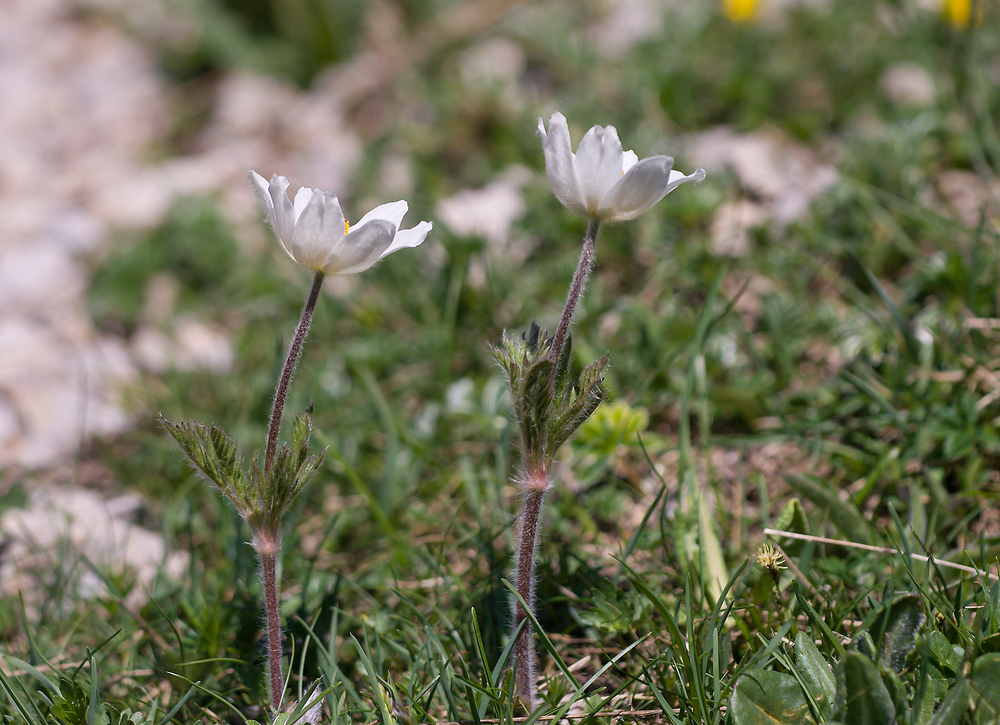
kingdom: Plantae
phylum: Tracheophyta
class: Magnoliopsida
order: Ranunculales
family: Ranunculaceae
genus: Pulsatilla
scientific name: Pulsatilla alpina
